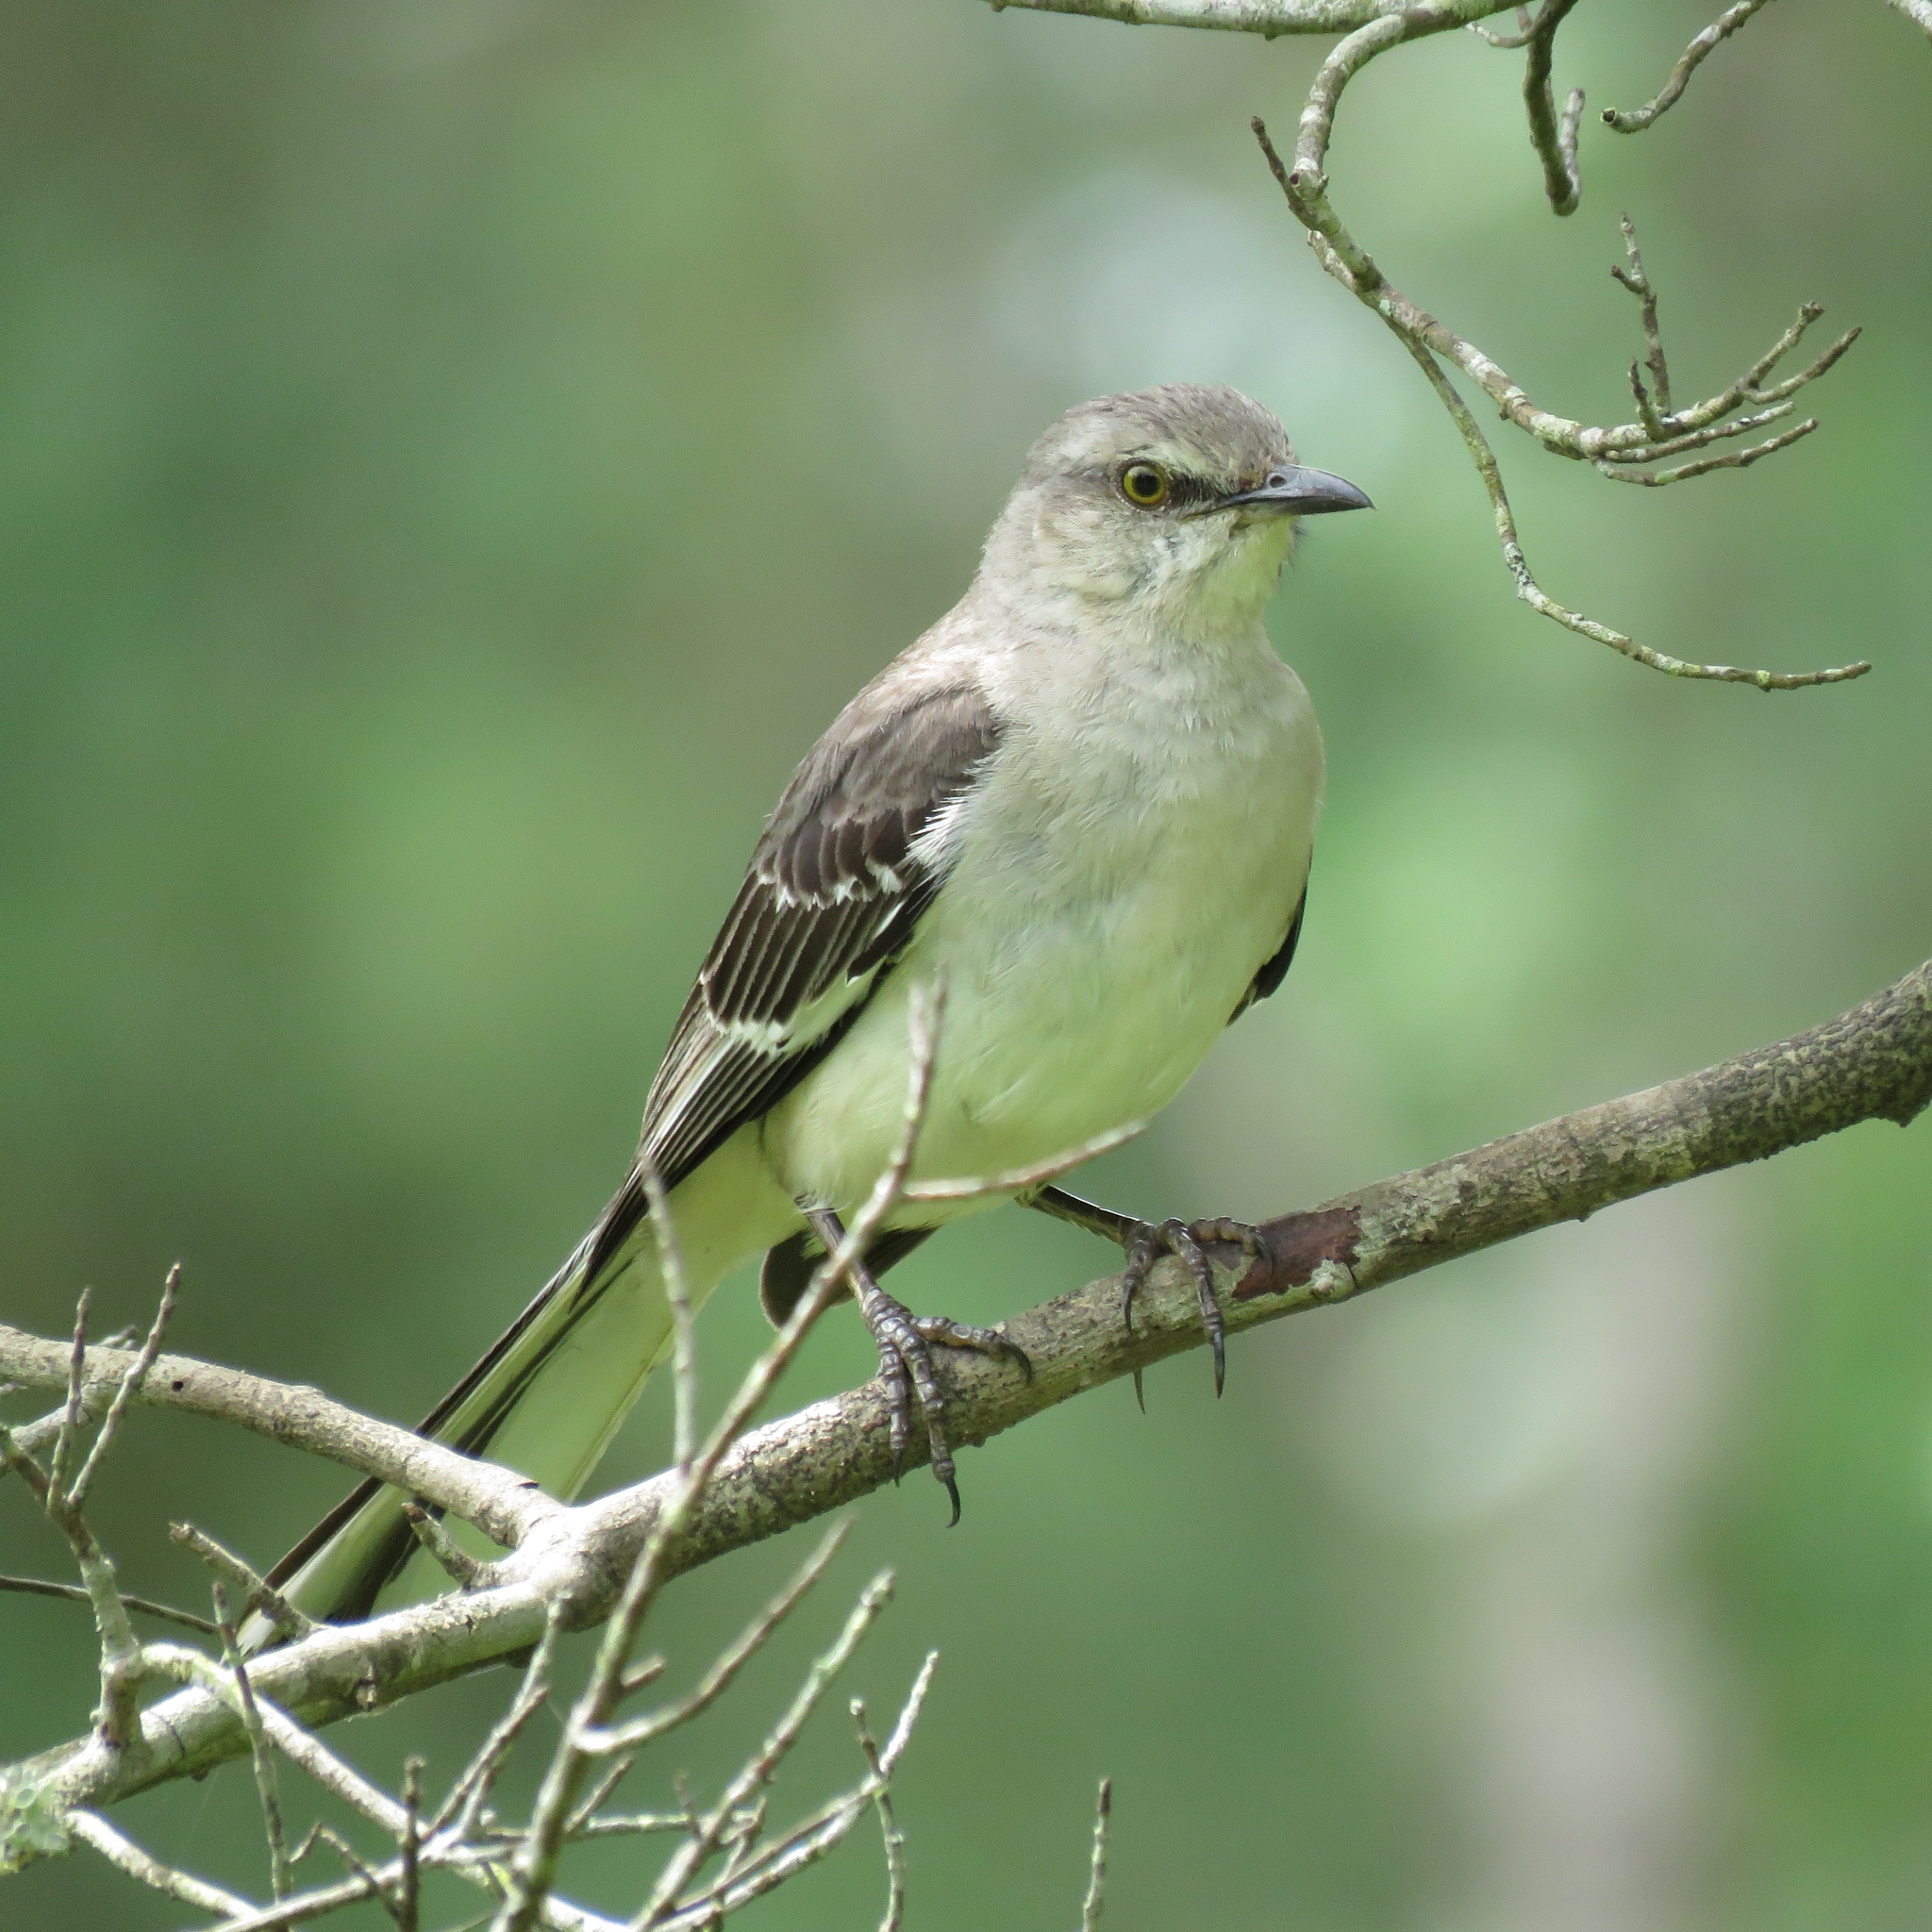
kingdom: Animalia
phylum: Chordata
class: Aves
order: Passeriformes
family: Mimidae
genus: Mimus
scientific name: Mimus polyglottos
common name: Northern mockingbird
